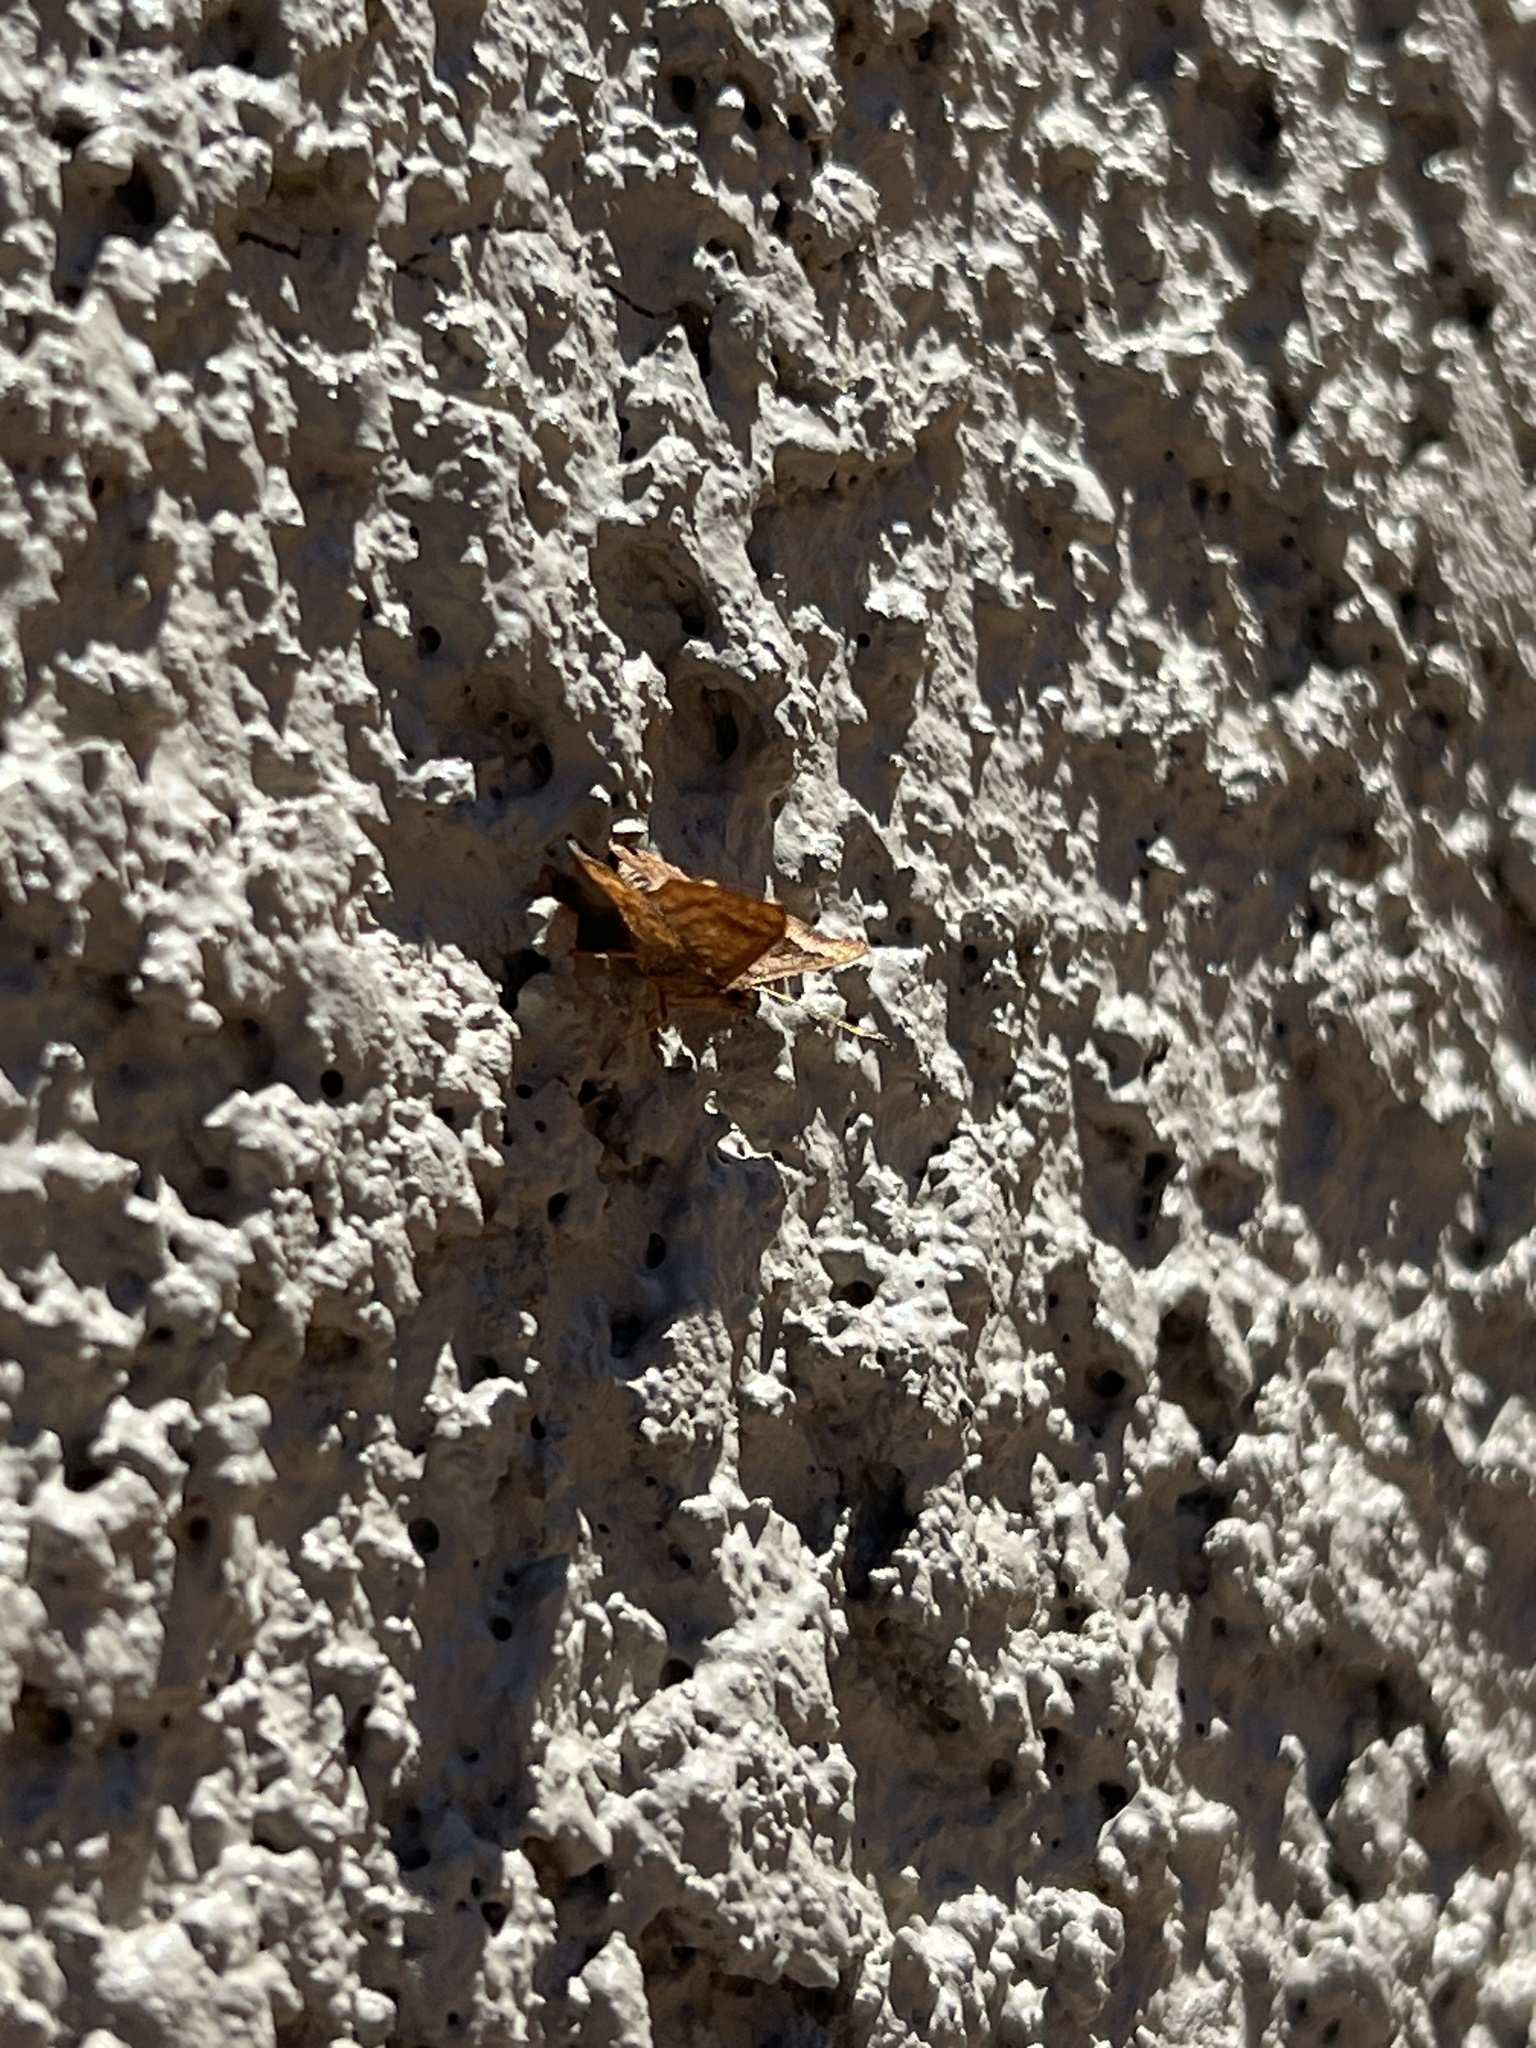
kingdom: Animalia
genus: Calephelis
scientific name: Calephelis nemesis
